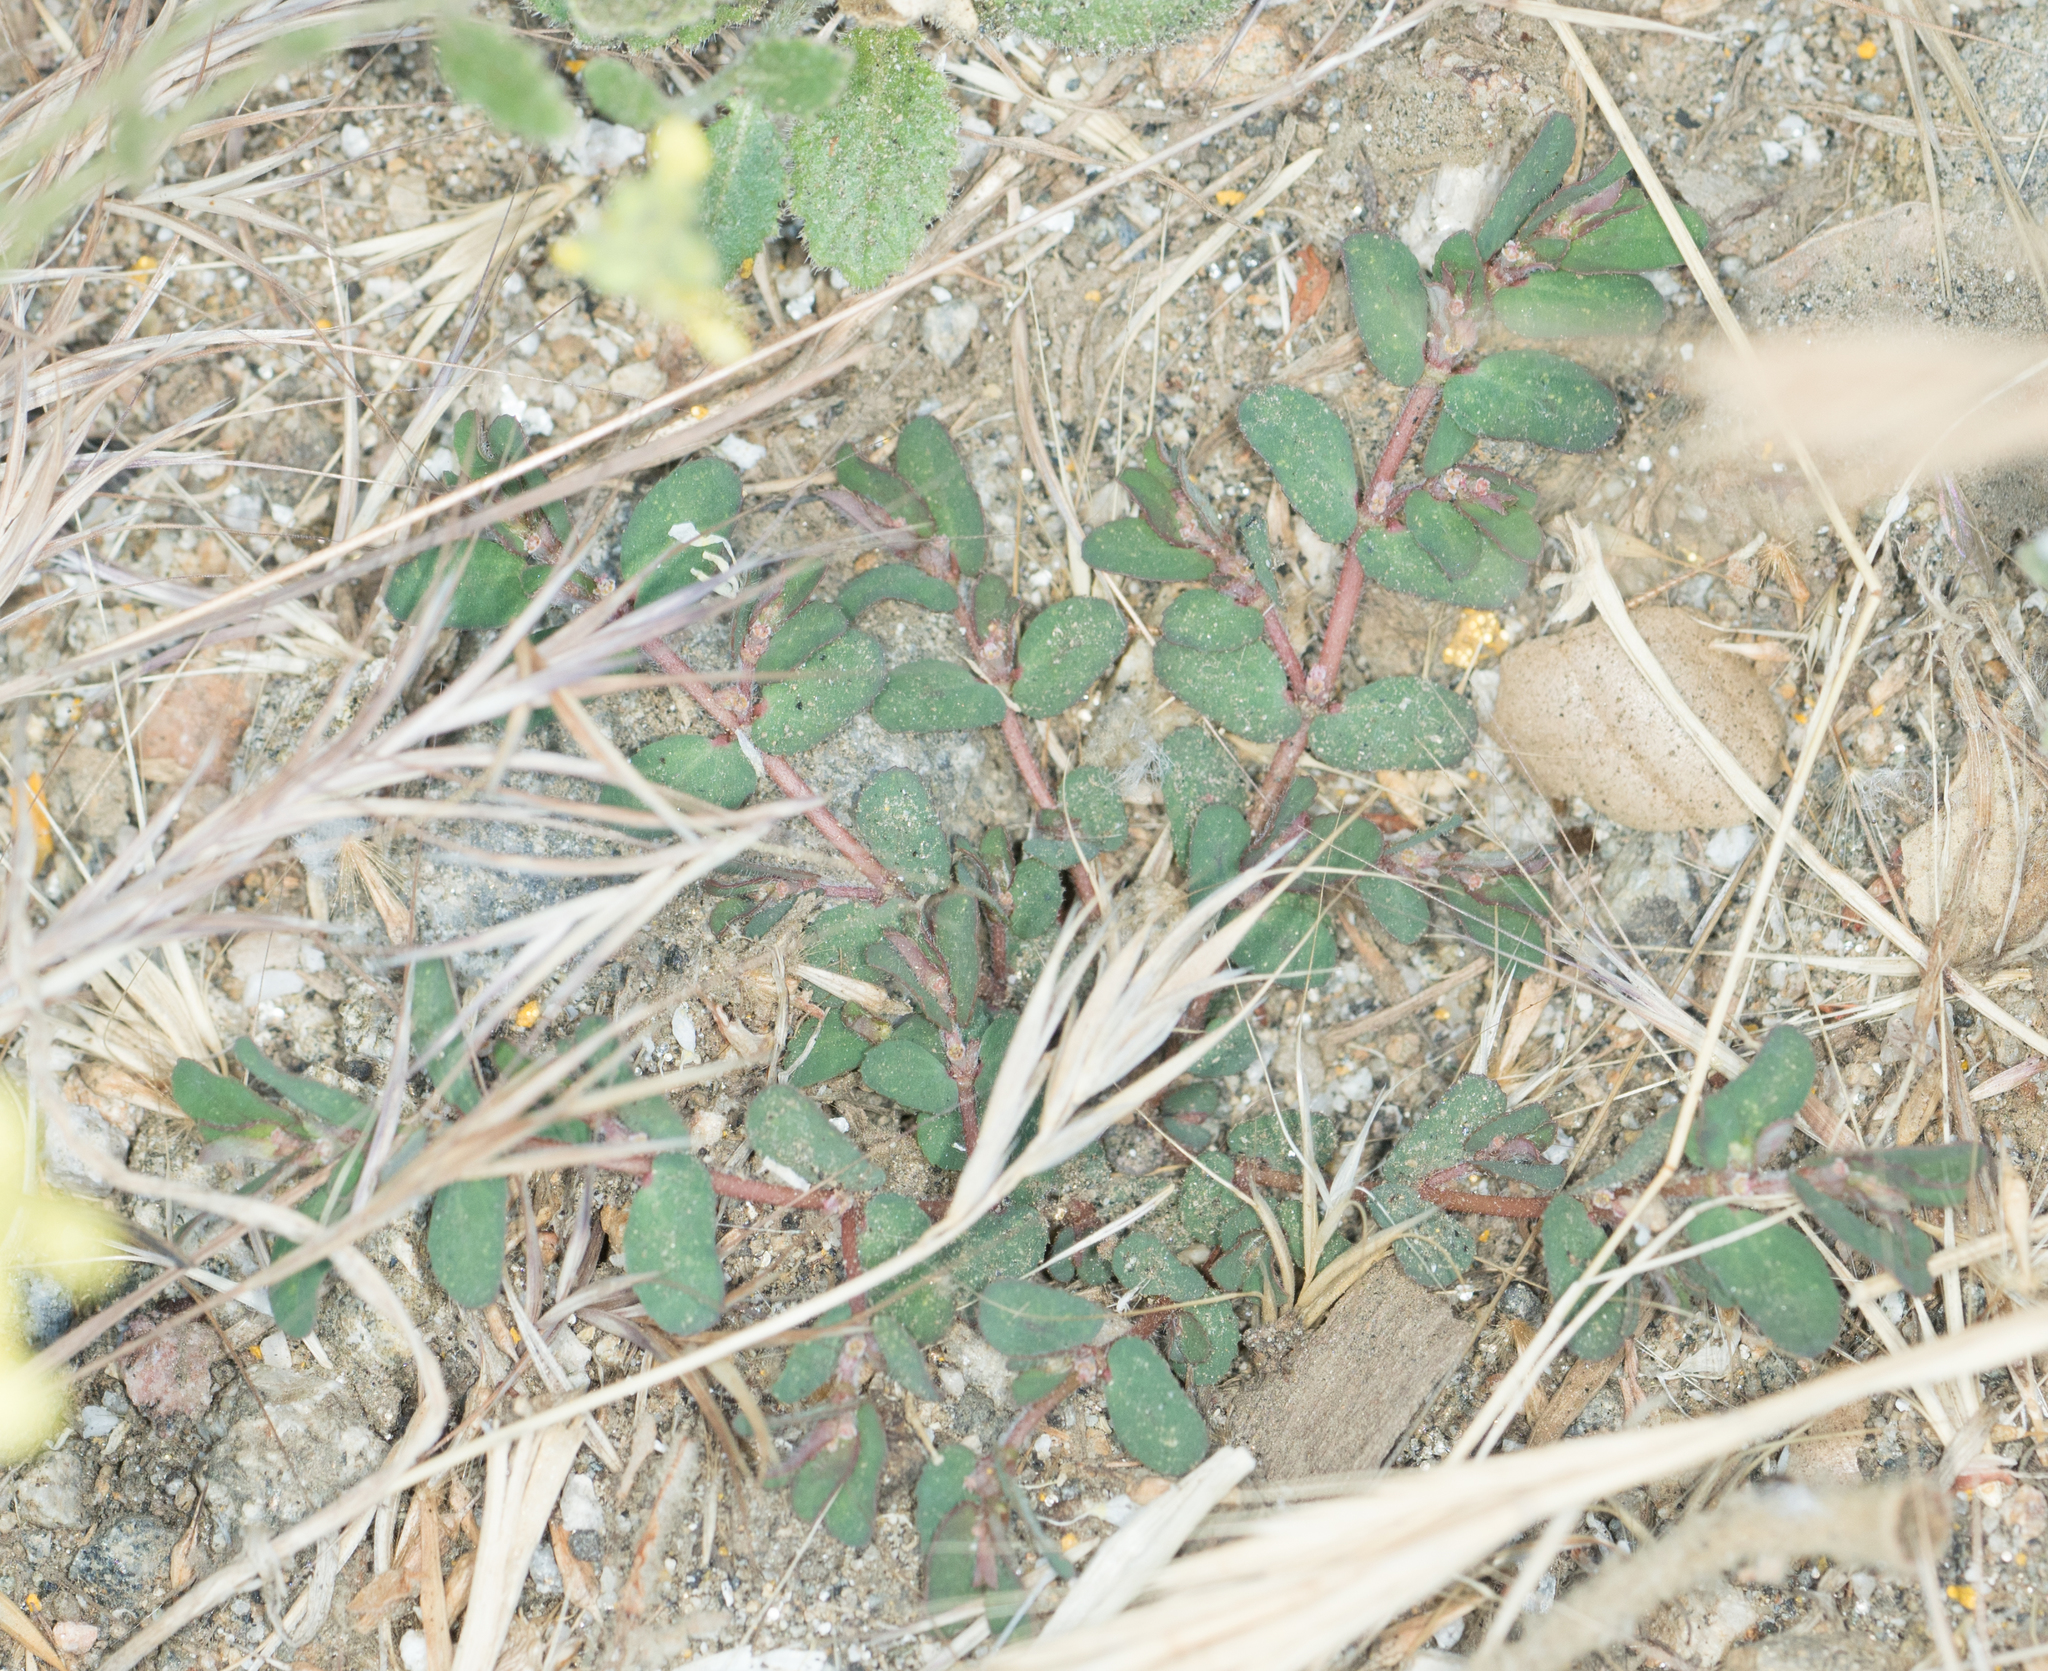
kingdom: Plantae
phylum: Tracheophyta
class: Magnoliopsida
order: Malpighiales
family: Euphorbiaceae
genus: Euphorbia
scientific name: Euphorbia maculata
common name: Spotted spurge
